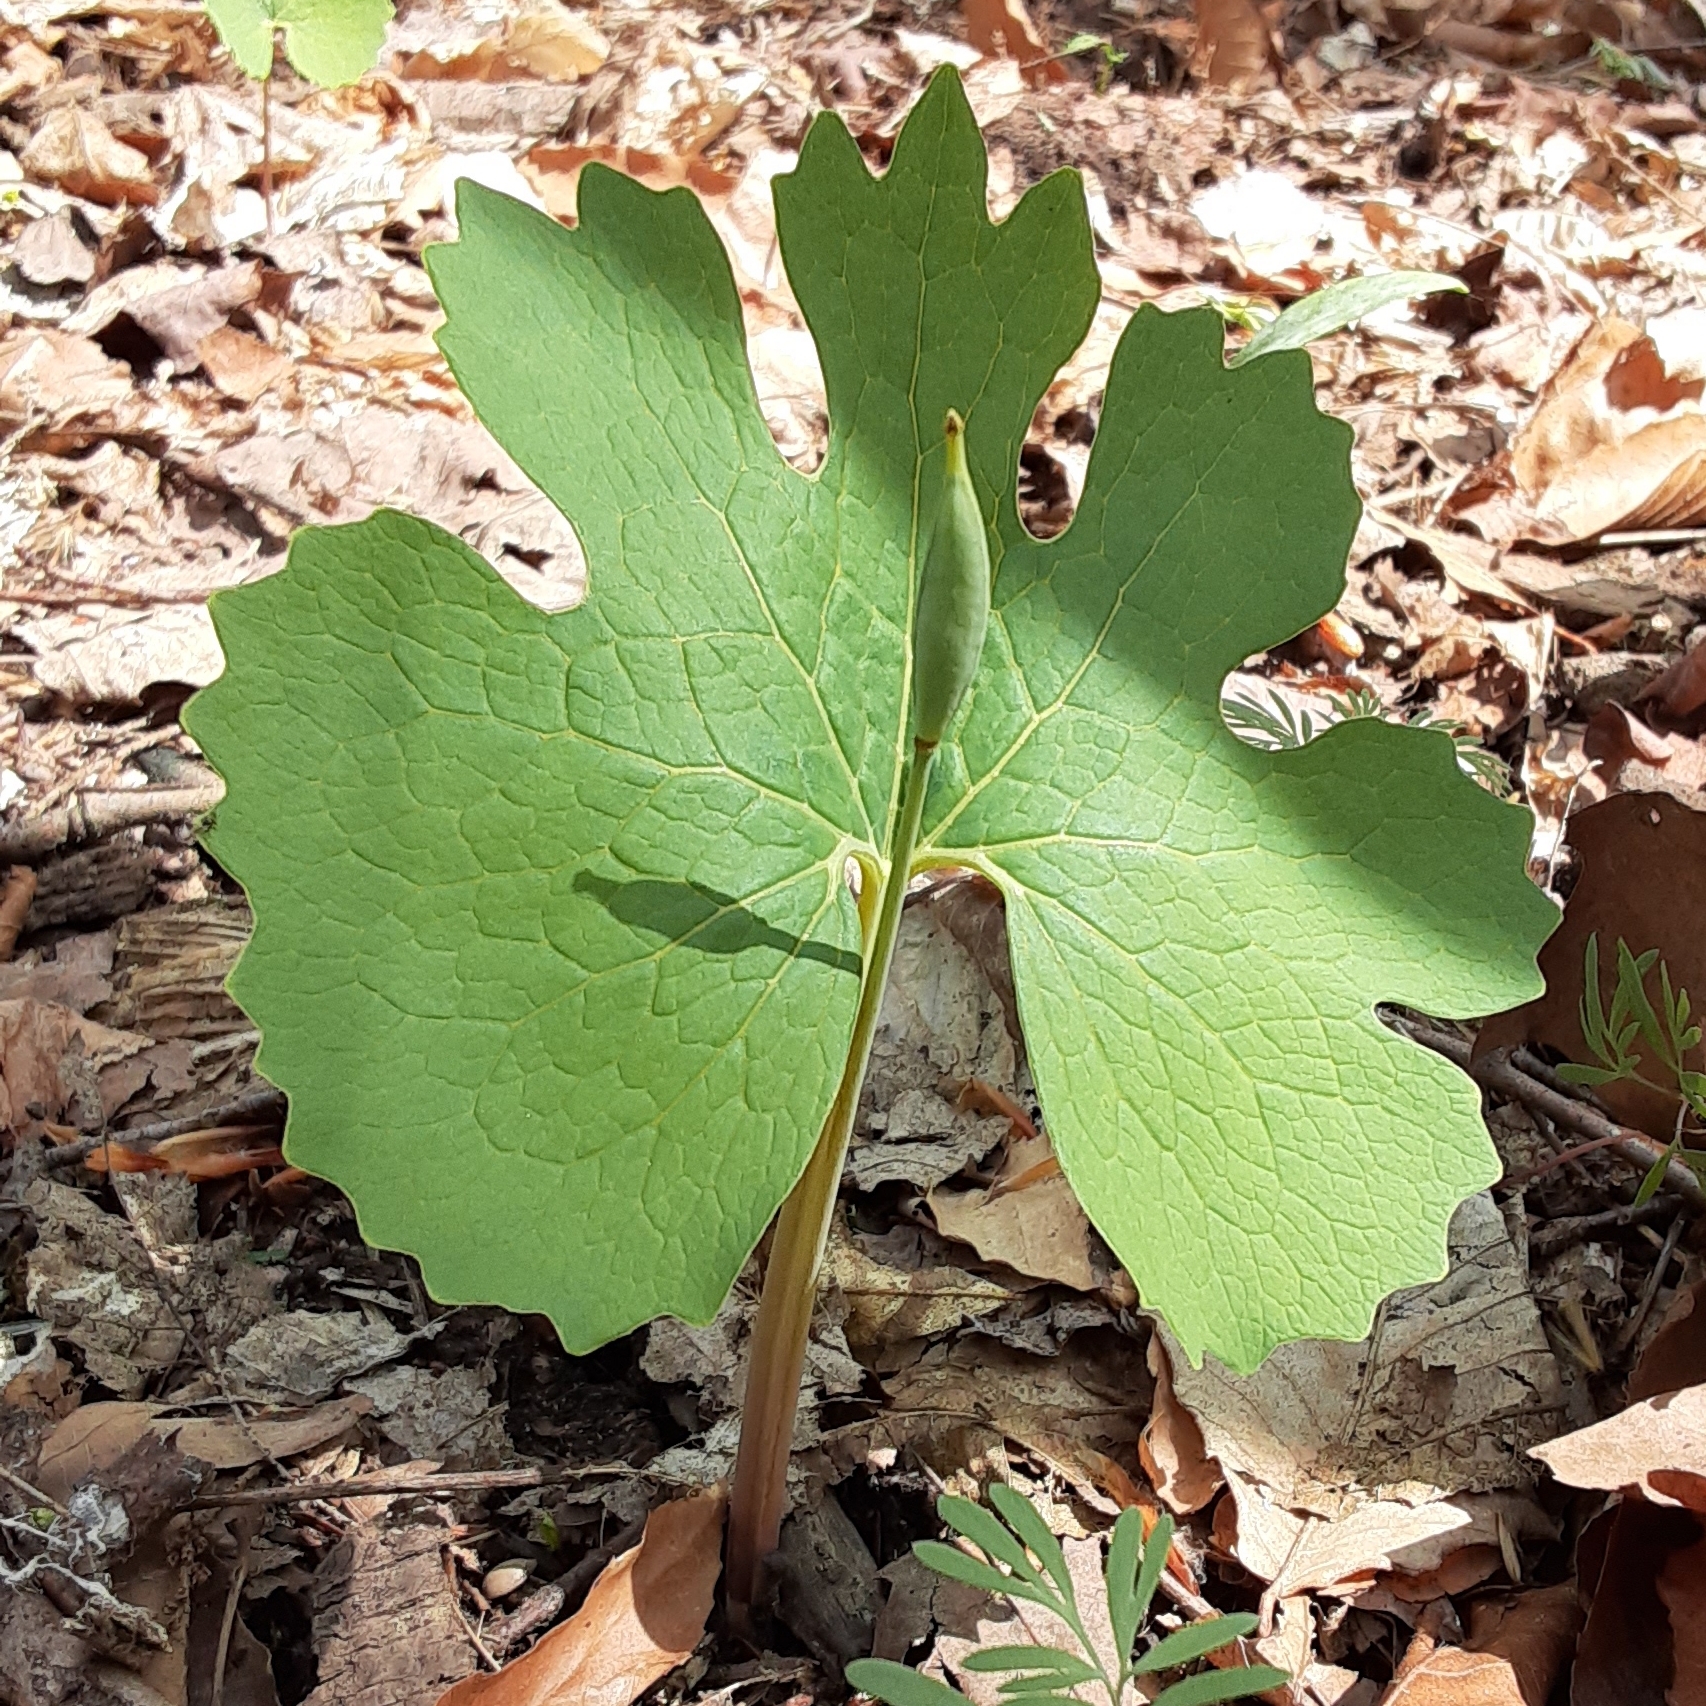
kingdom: Plantae
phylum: Tracheophyta
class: Magnoliopsida
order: Ranunculales
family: Papaveraceae
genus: Sanguinaria
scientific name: Sanguinaria canadensis
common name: Bloodroot
